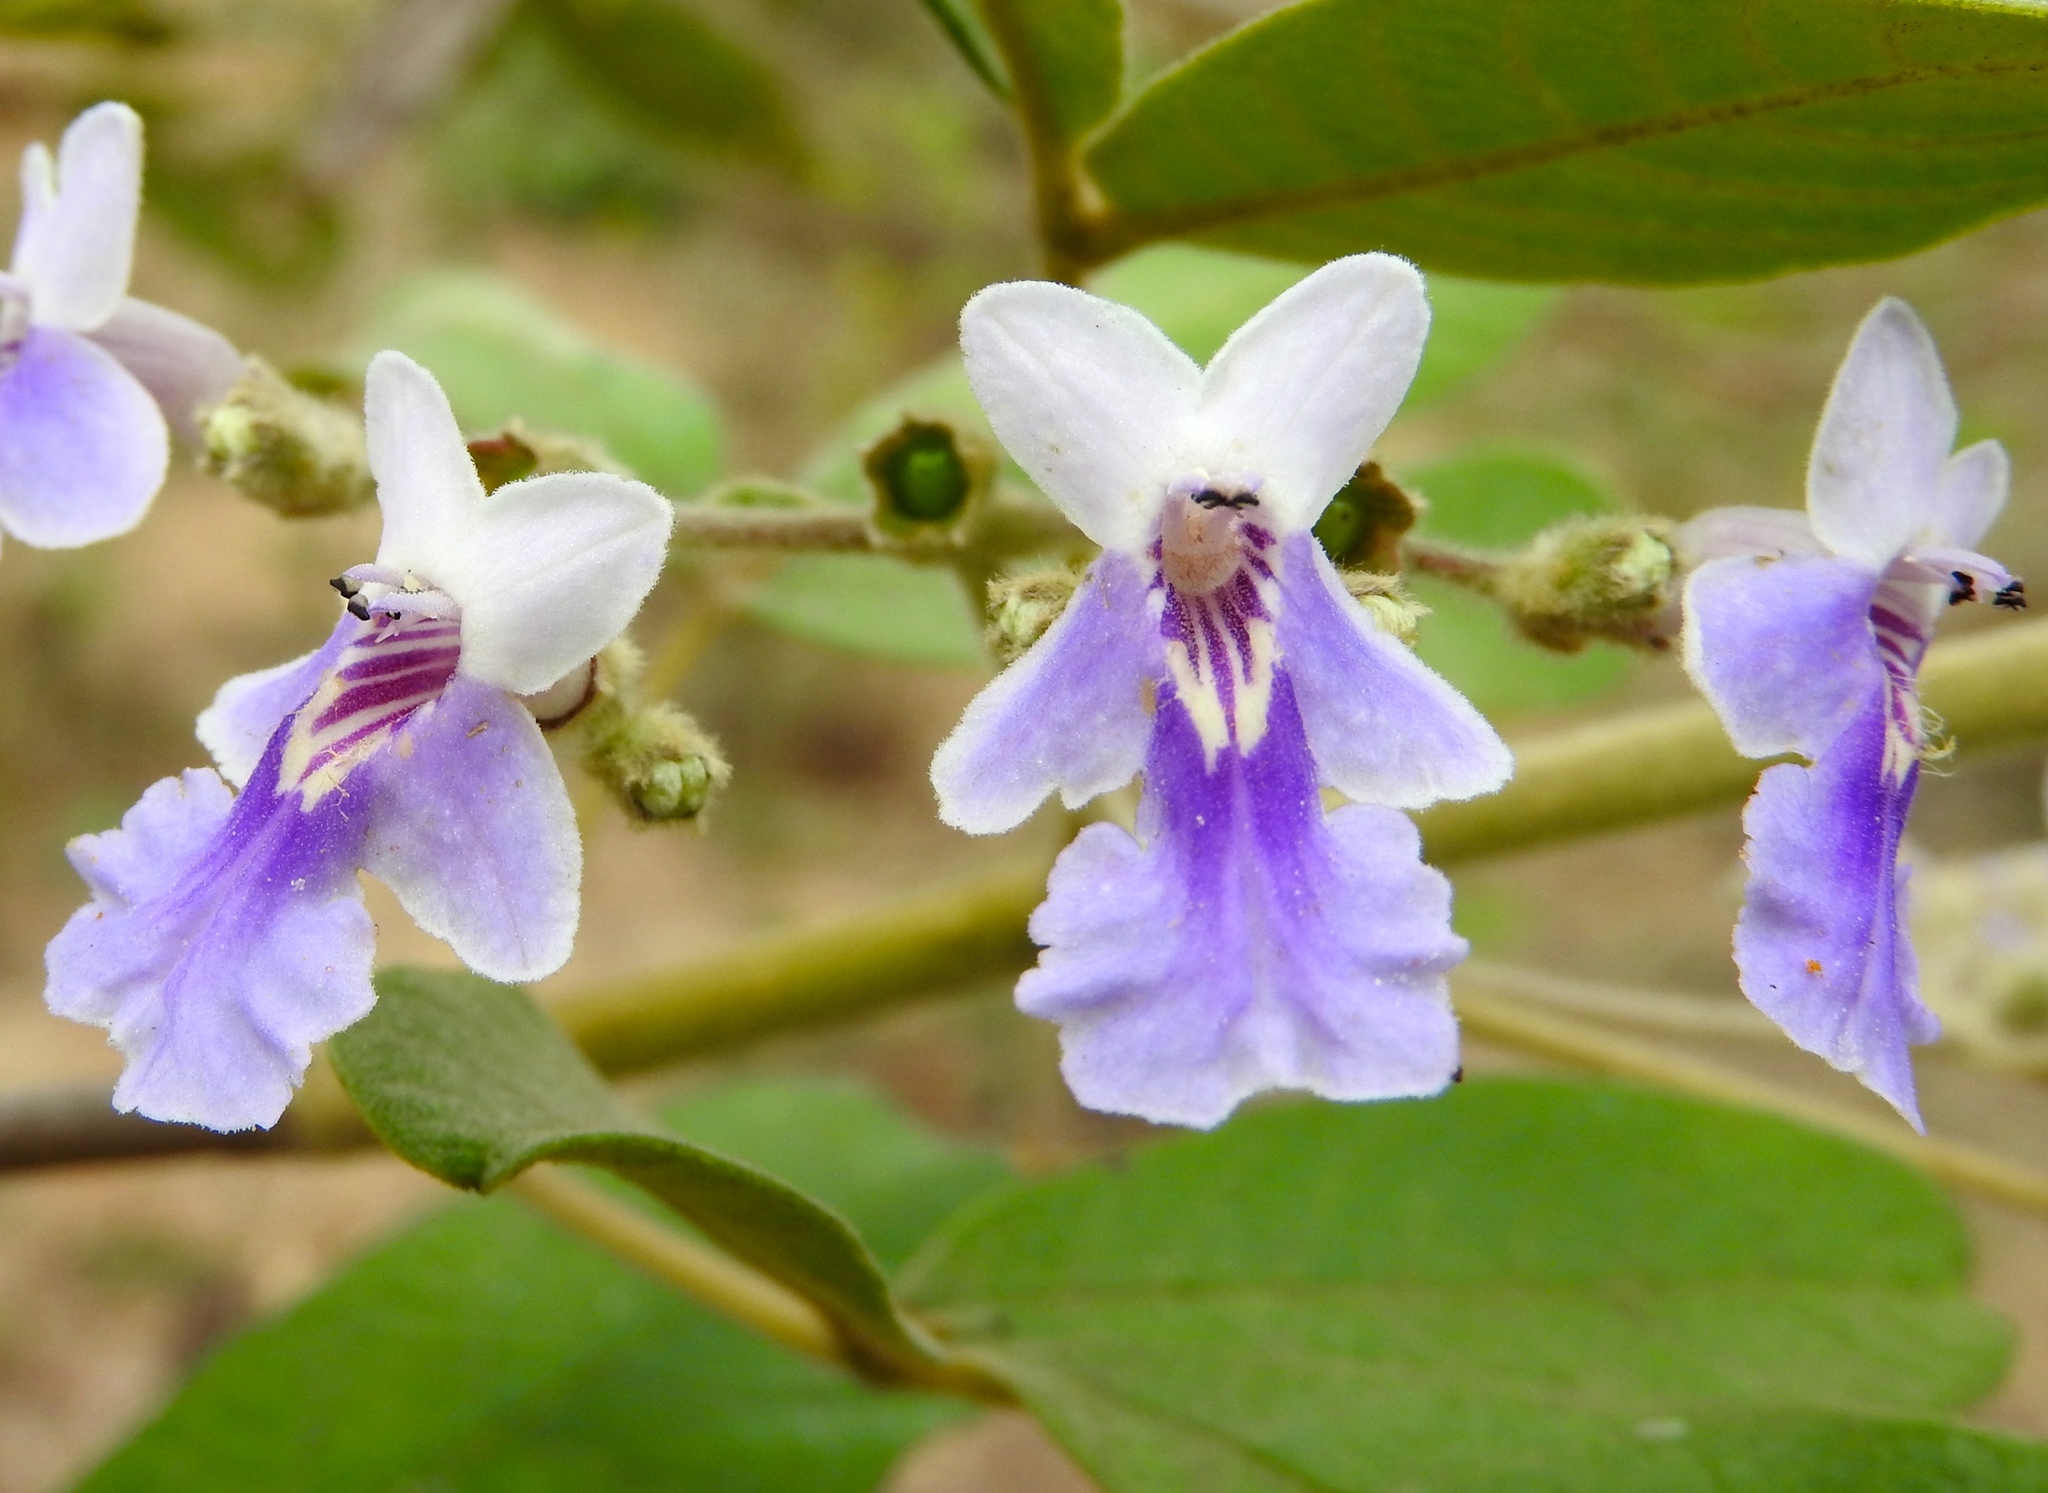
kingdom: Plantae
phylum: Tracheophyta
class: Magnoliopsida
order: Lamiales
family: Lamiaceae
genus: Vitex
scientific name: Vitex mollis
